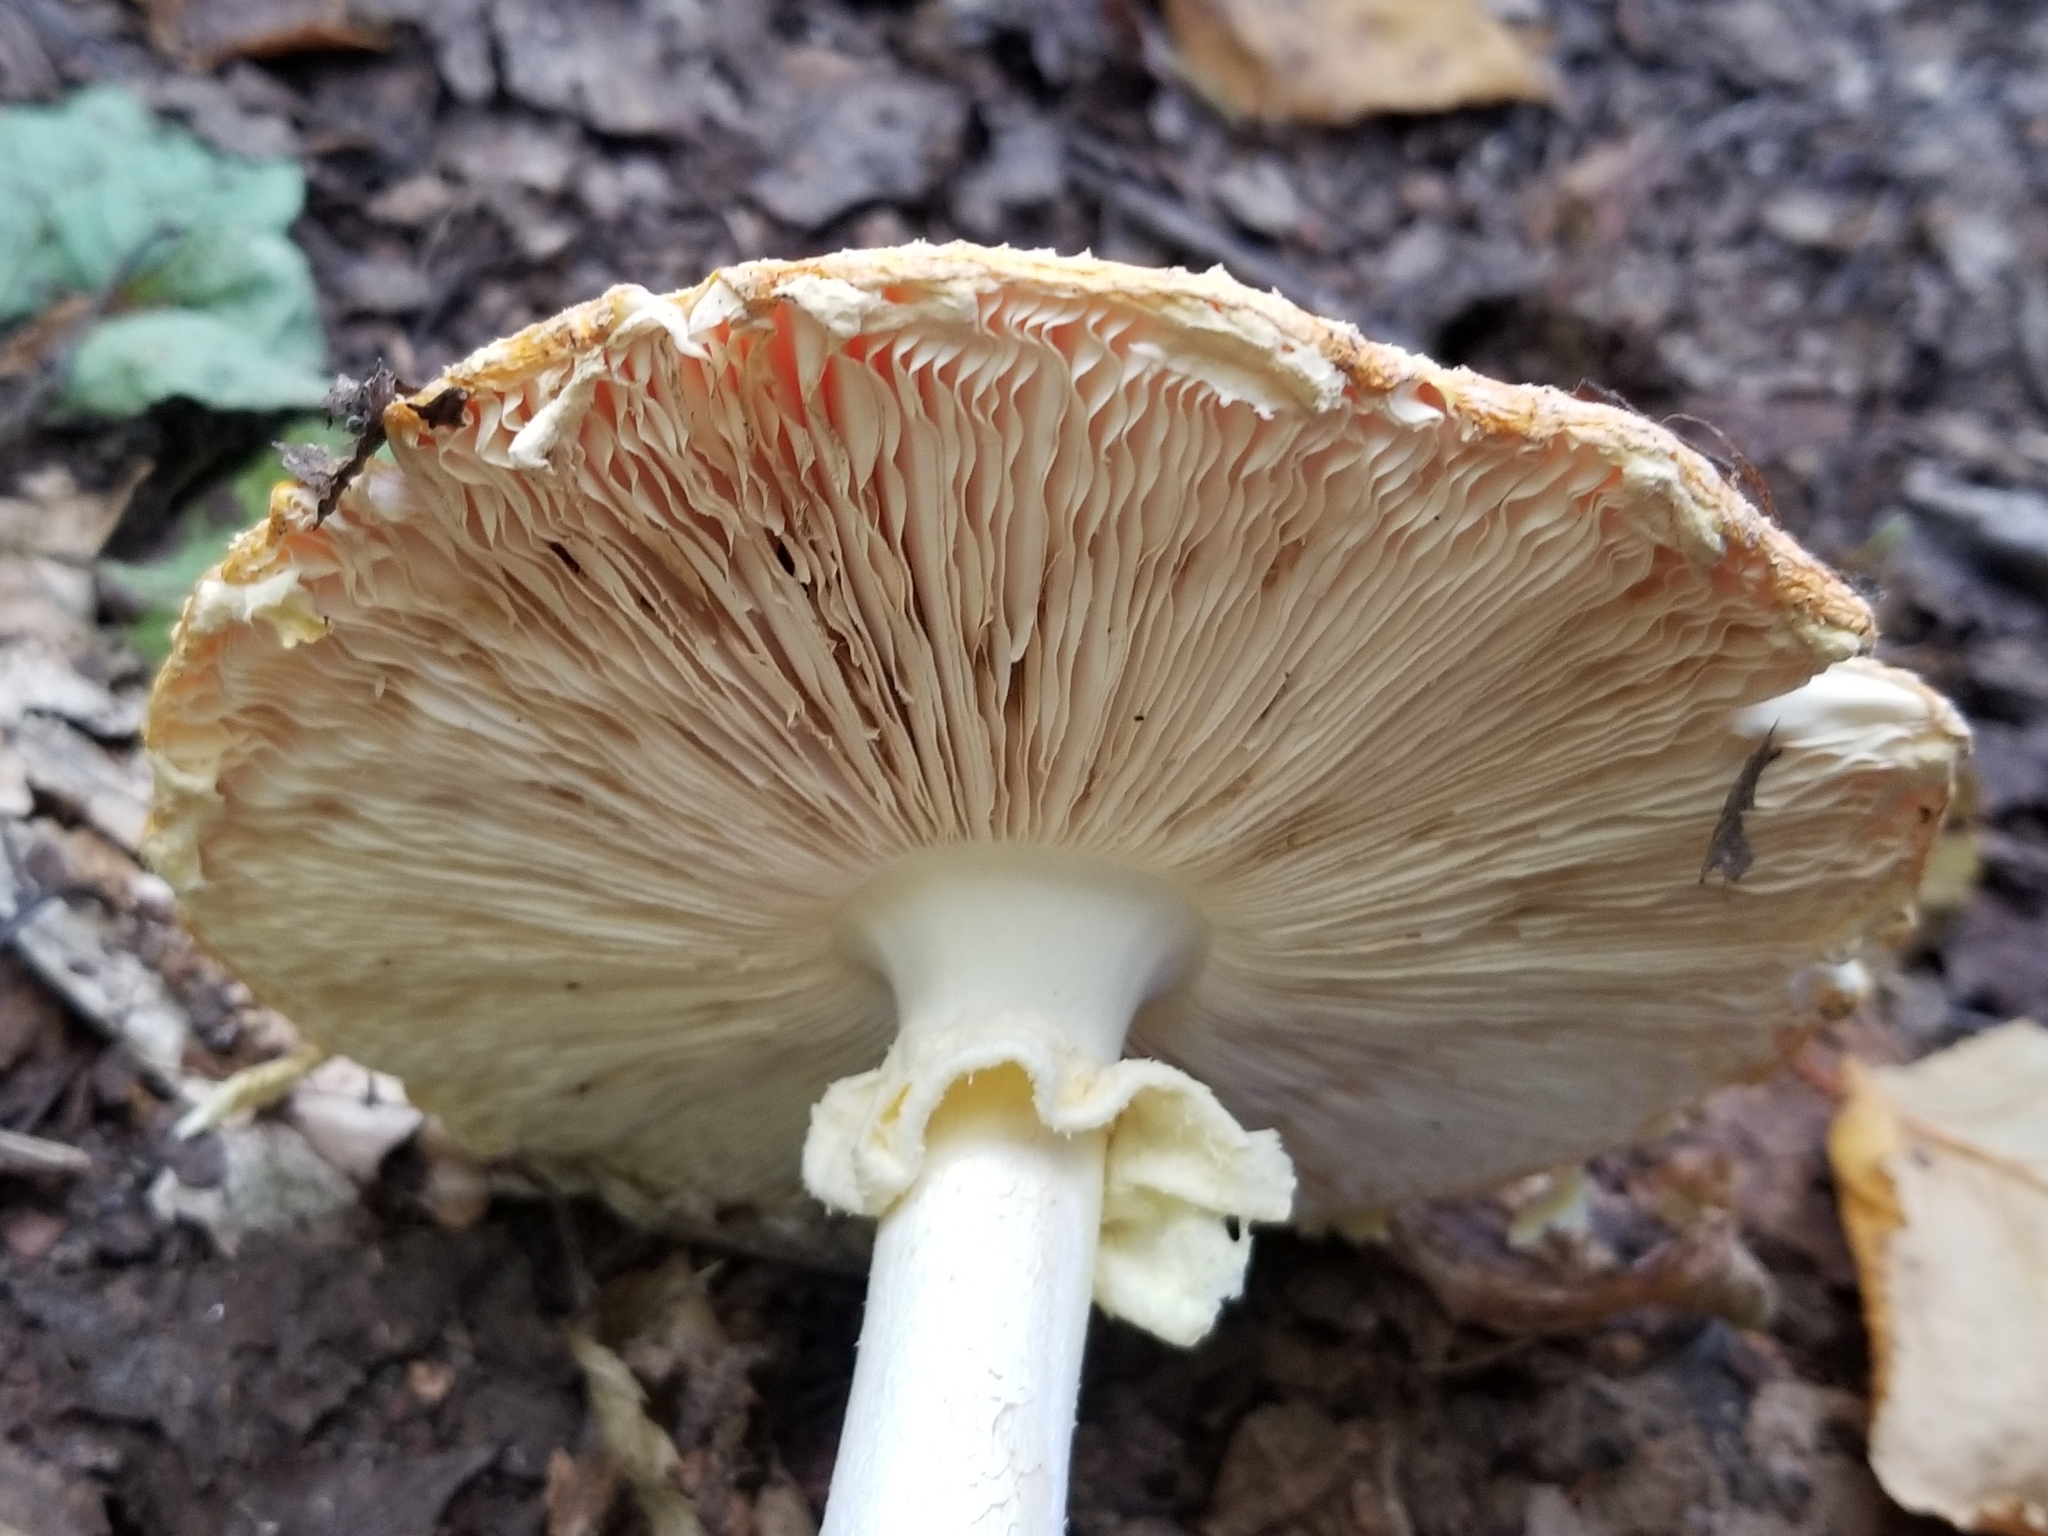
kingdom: Fungi
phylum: Basidiomycota
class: Agaricomycetes
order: Agaricales
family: Amanitaceae
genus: Amanita
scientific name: Amanita muscaria
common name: Fly agaric
